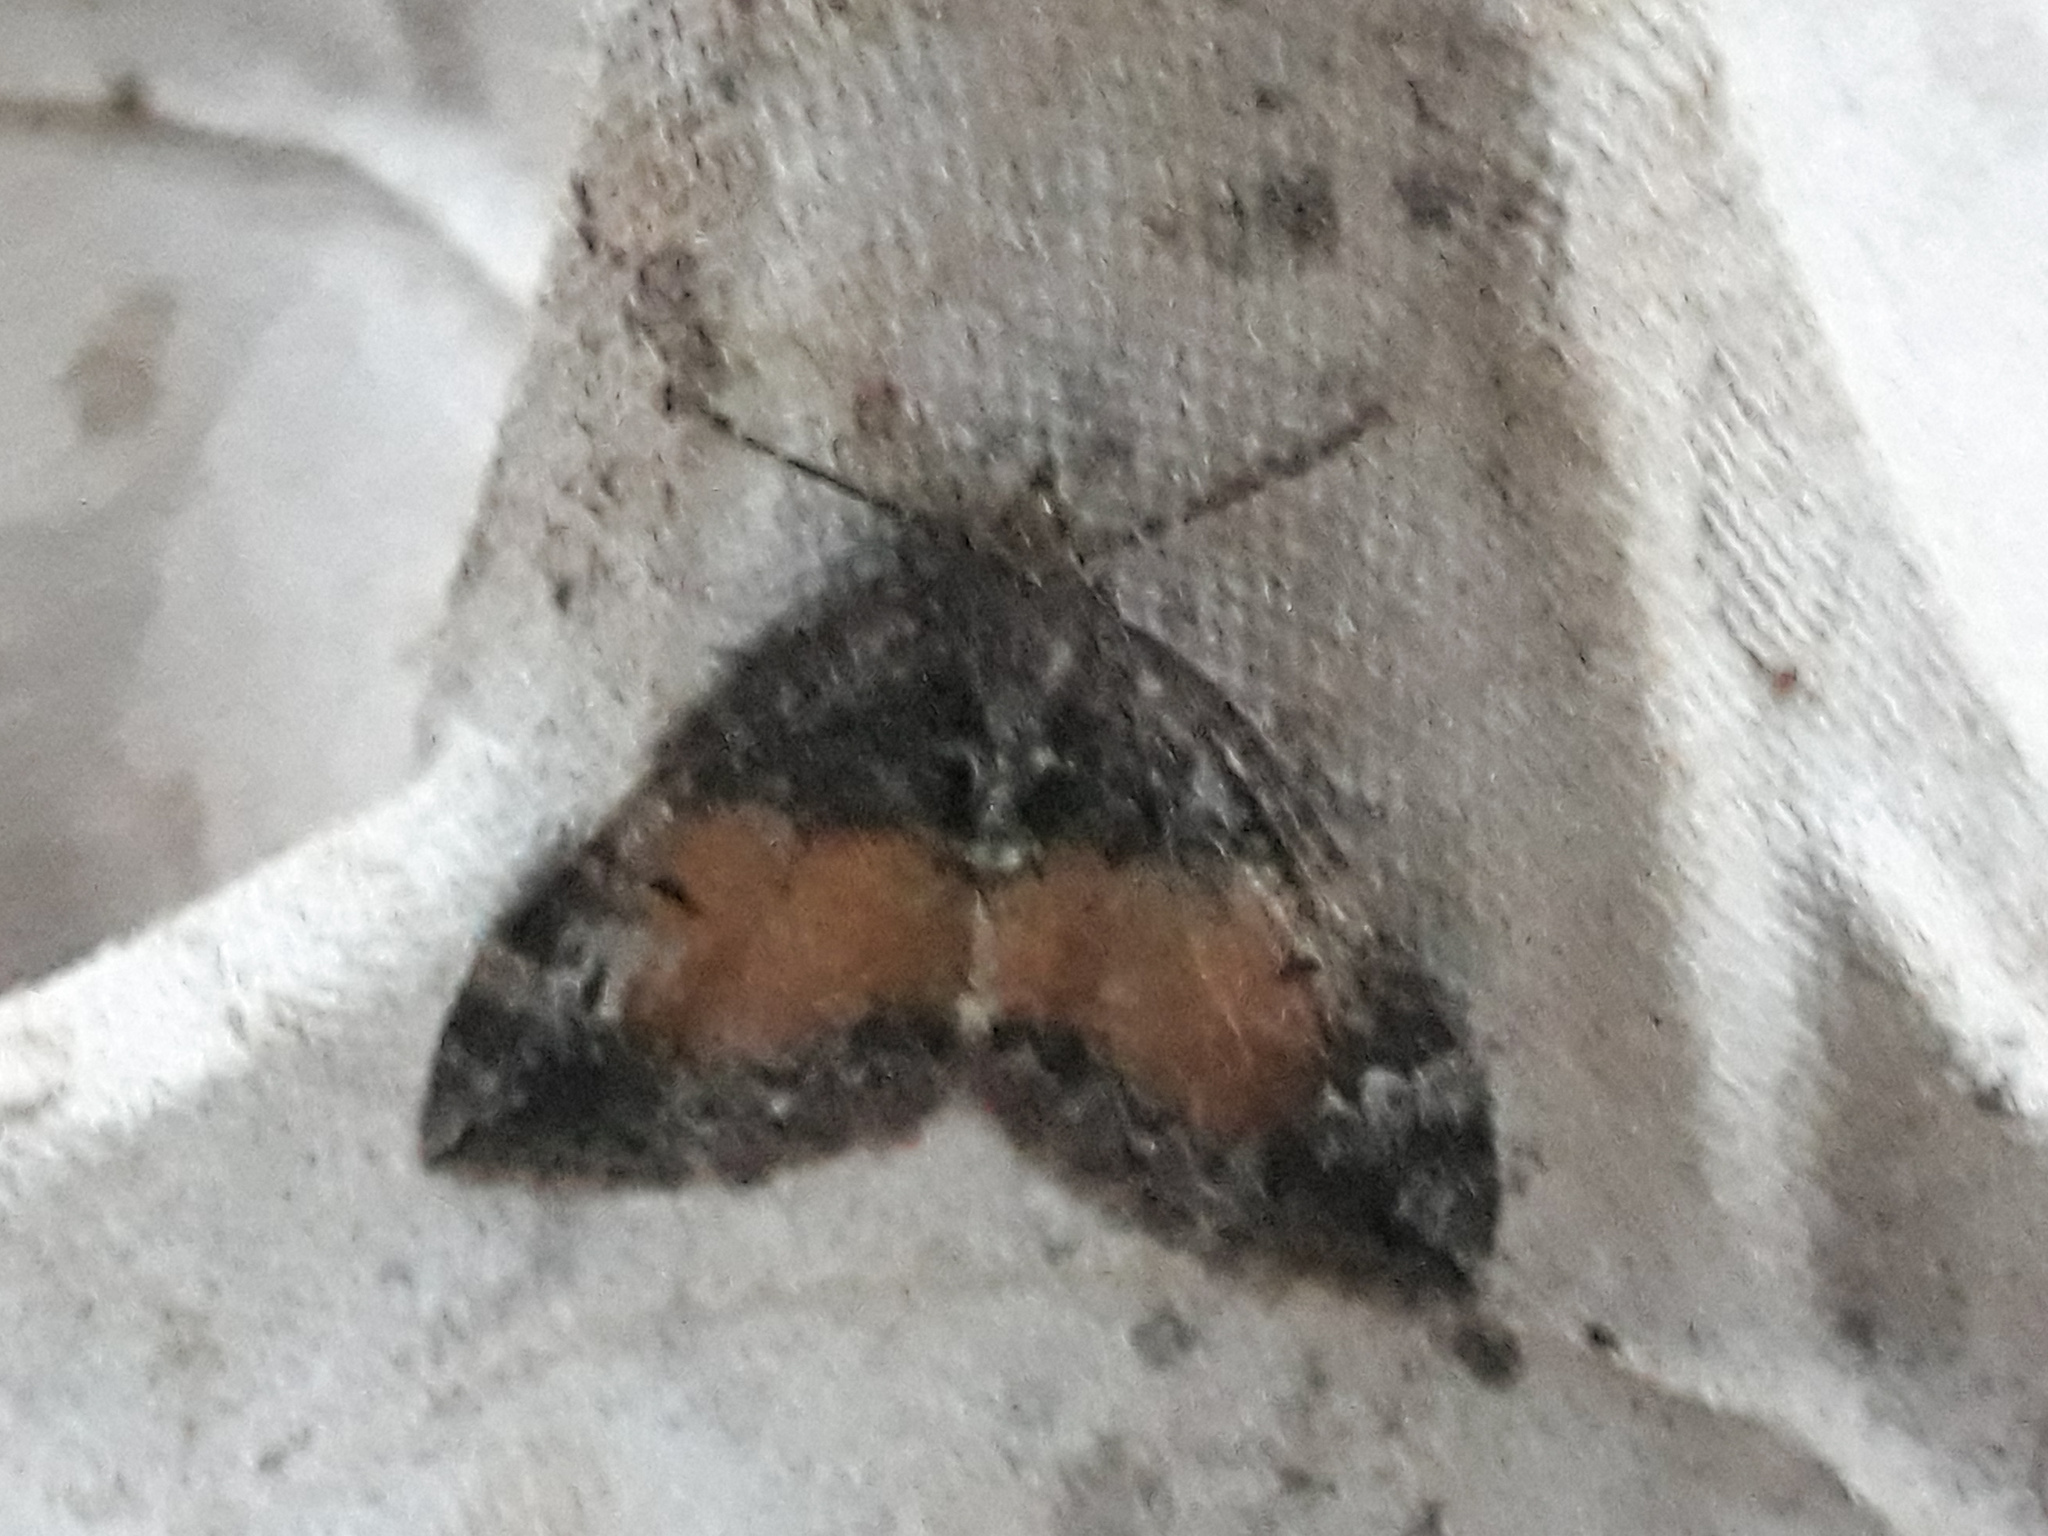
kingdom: Animalia
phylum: Arthropoda
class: Insecta
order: Lepidoptera
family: Geometridae
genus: Dysstroma
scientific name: Dysstroma truncata
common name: Common marbled carpet
